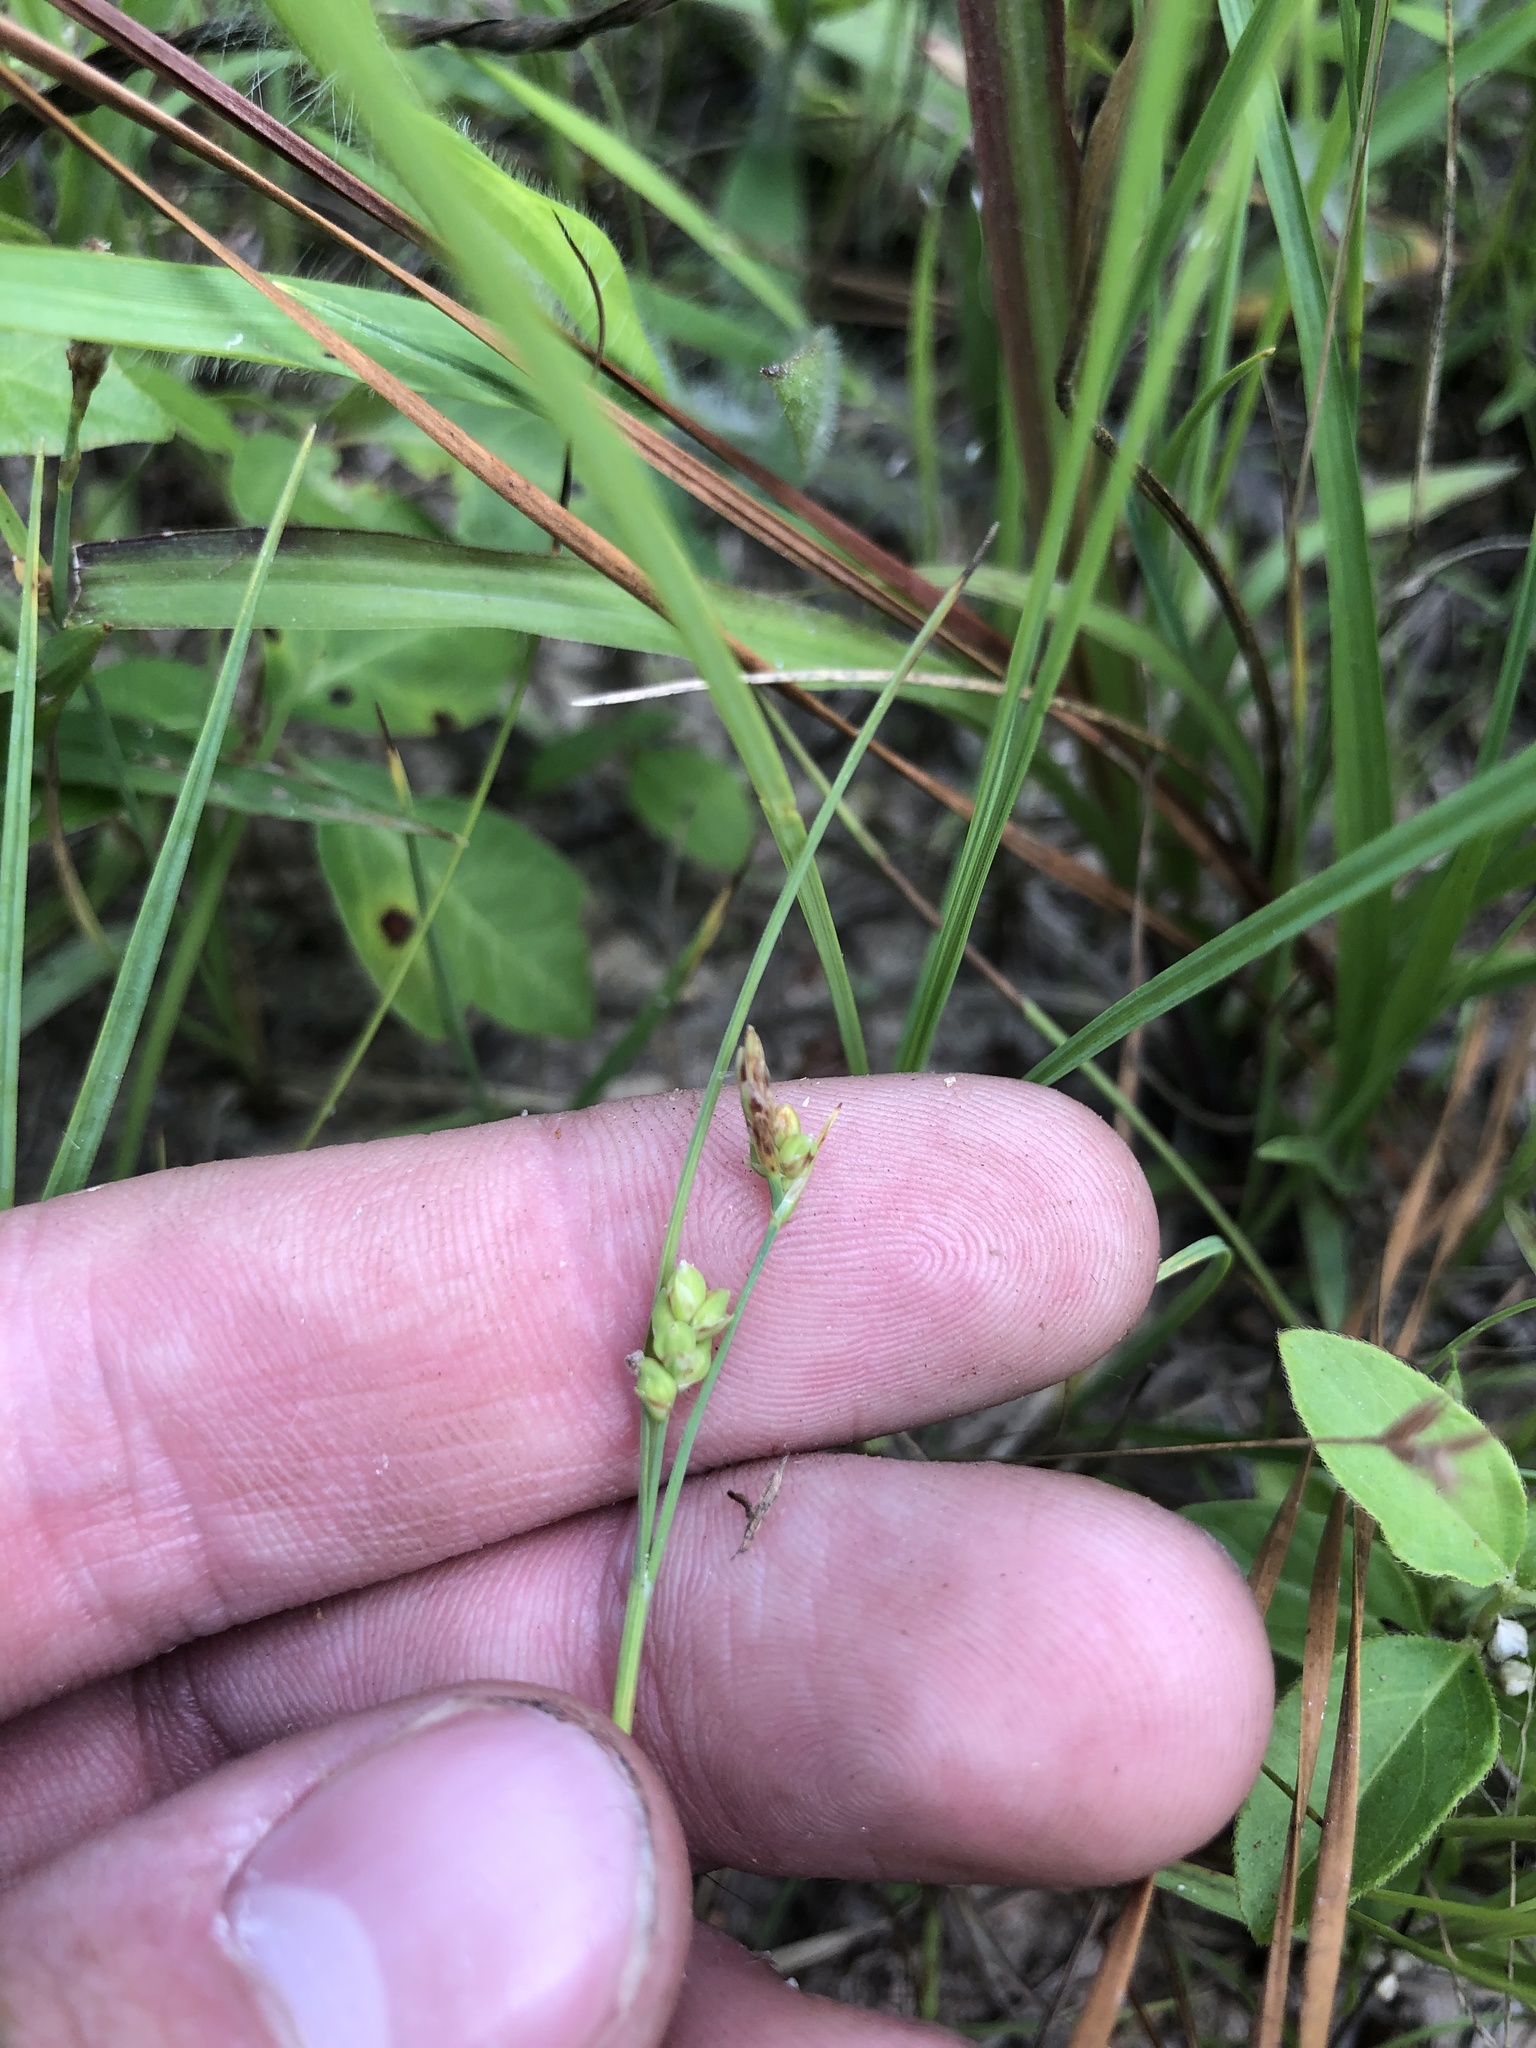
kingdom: Plantae
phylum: Tracheophyta
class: Liliopsida
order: Poales
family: Cyperaceae
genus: Carex
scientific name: Carex meadii
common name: Mead's sedge
